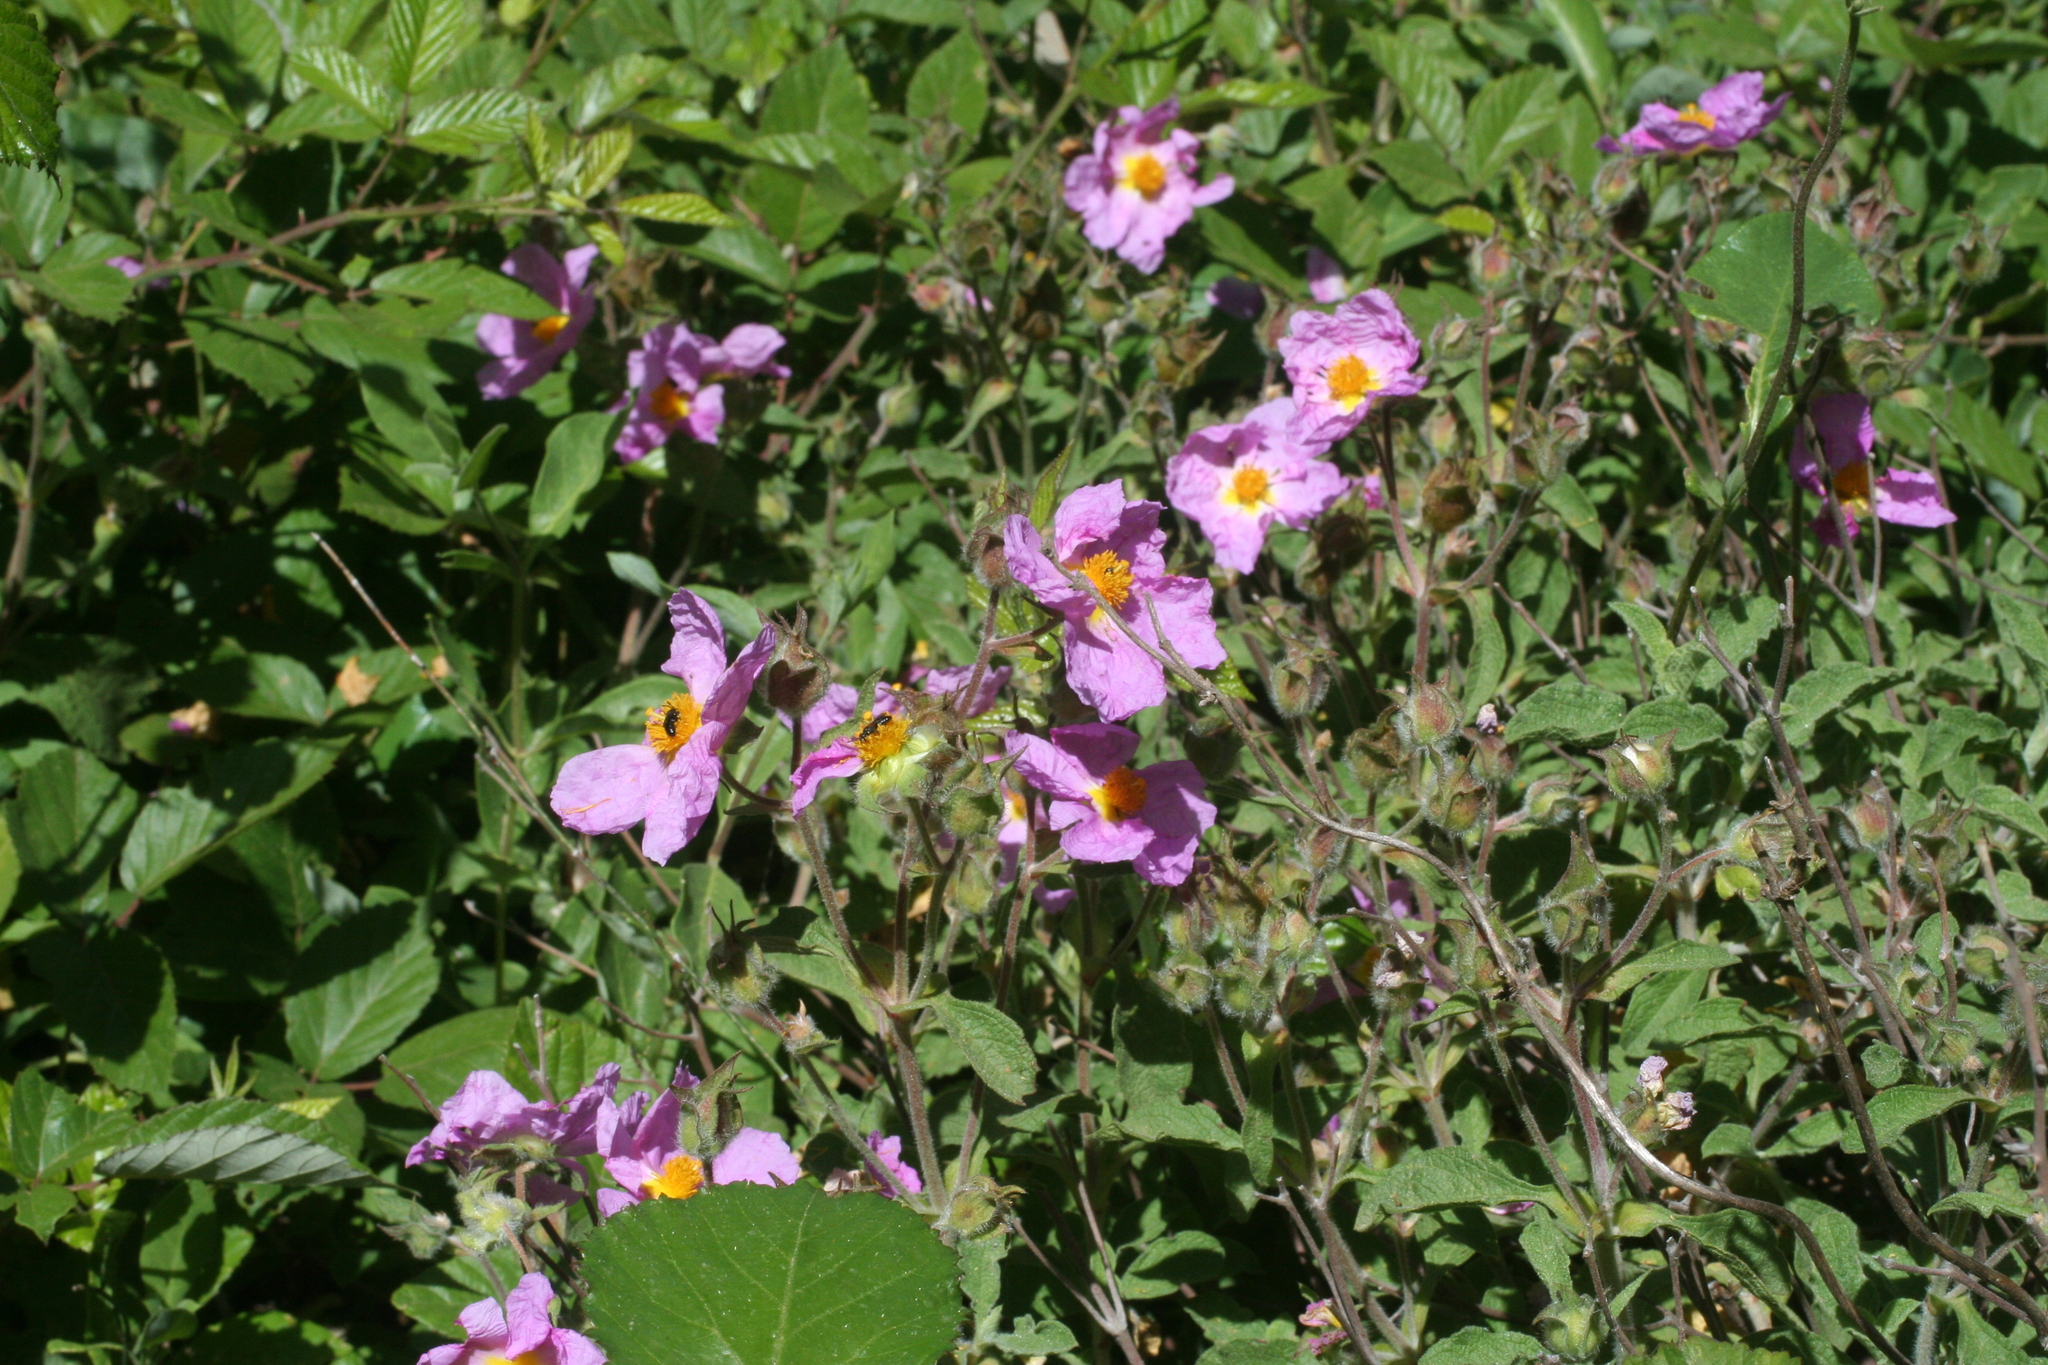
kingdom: Plantae
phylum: Tracheophyta
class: Magnoliopsida
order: Malvales
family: Cistaceae
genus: Cistus
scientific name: Cistus creticus
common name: Cretan rockrose
